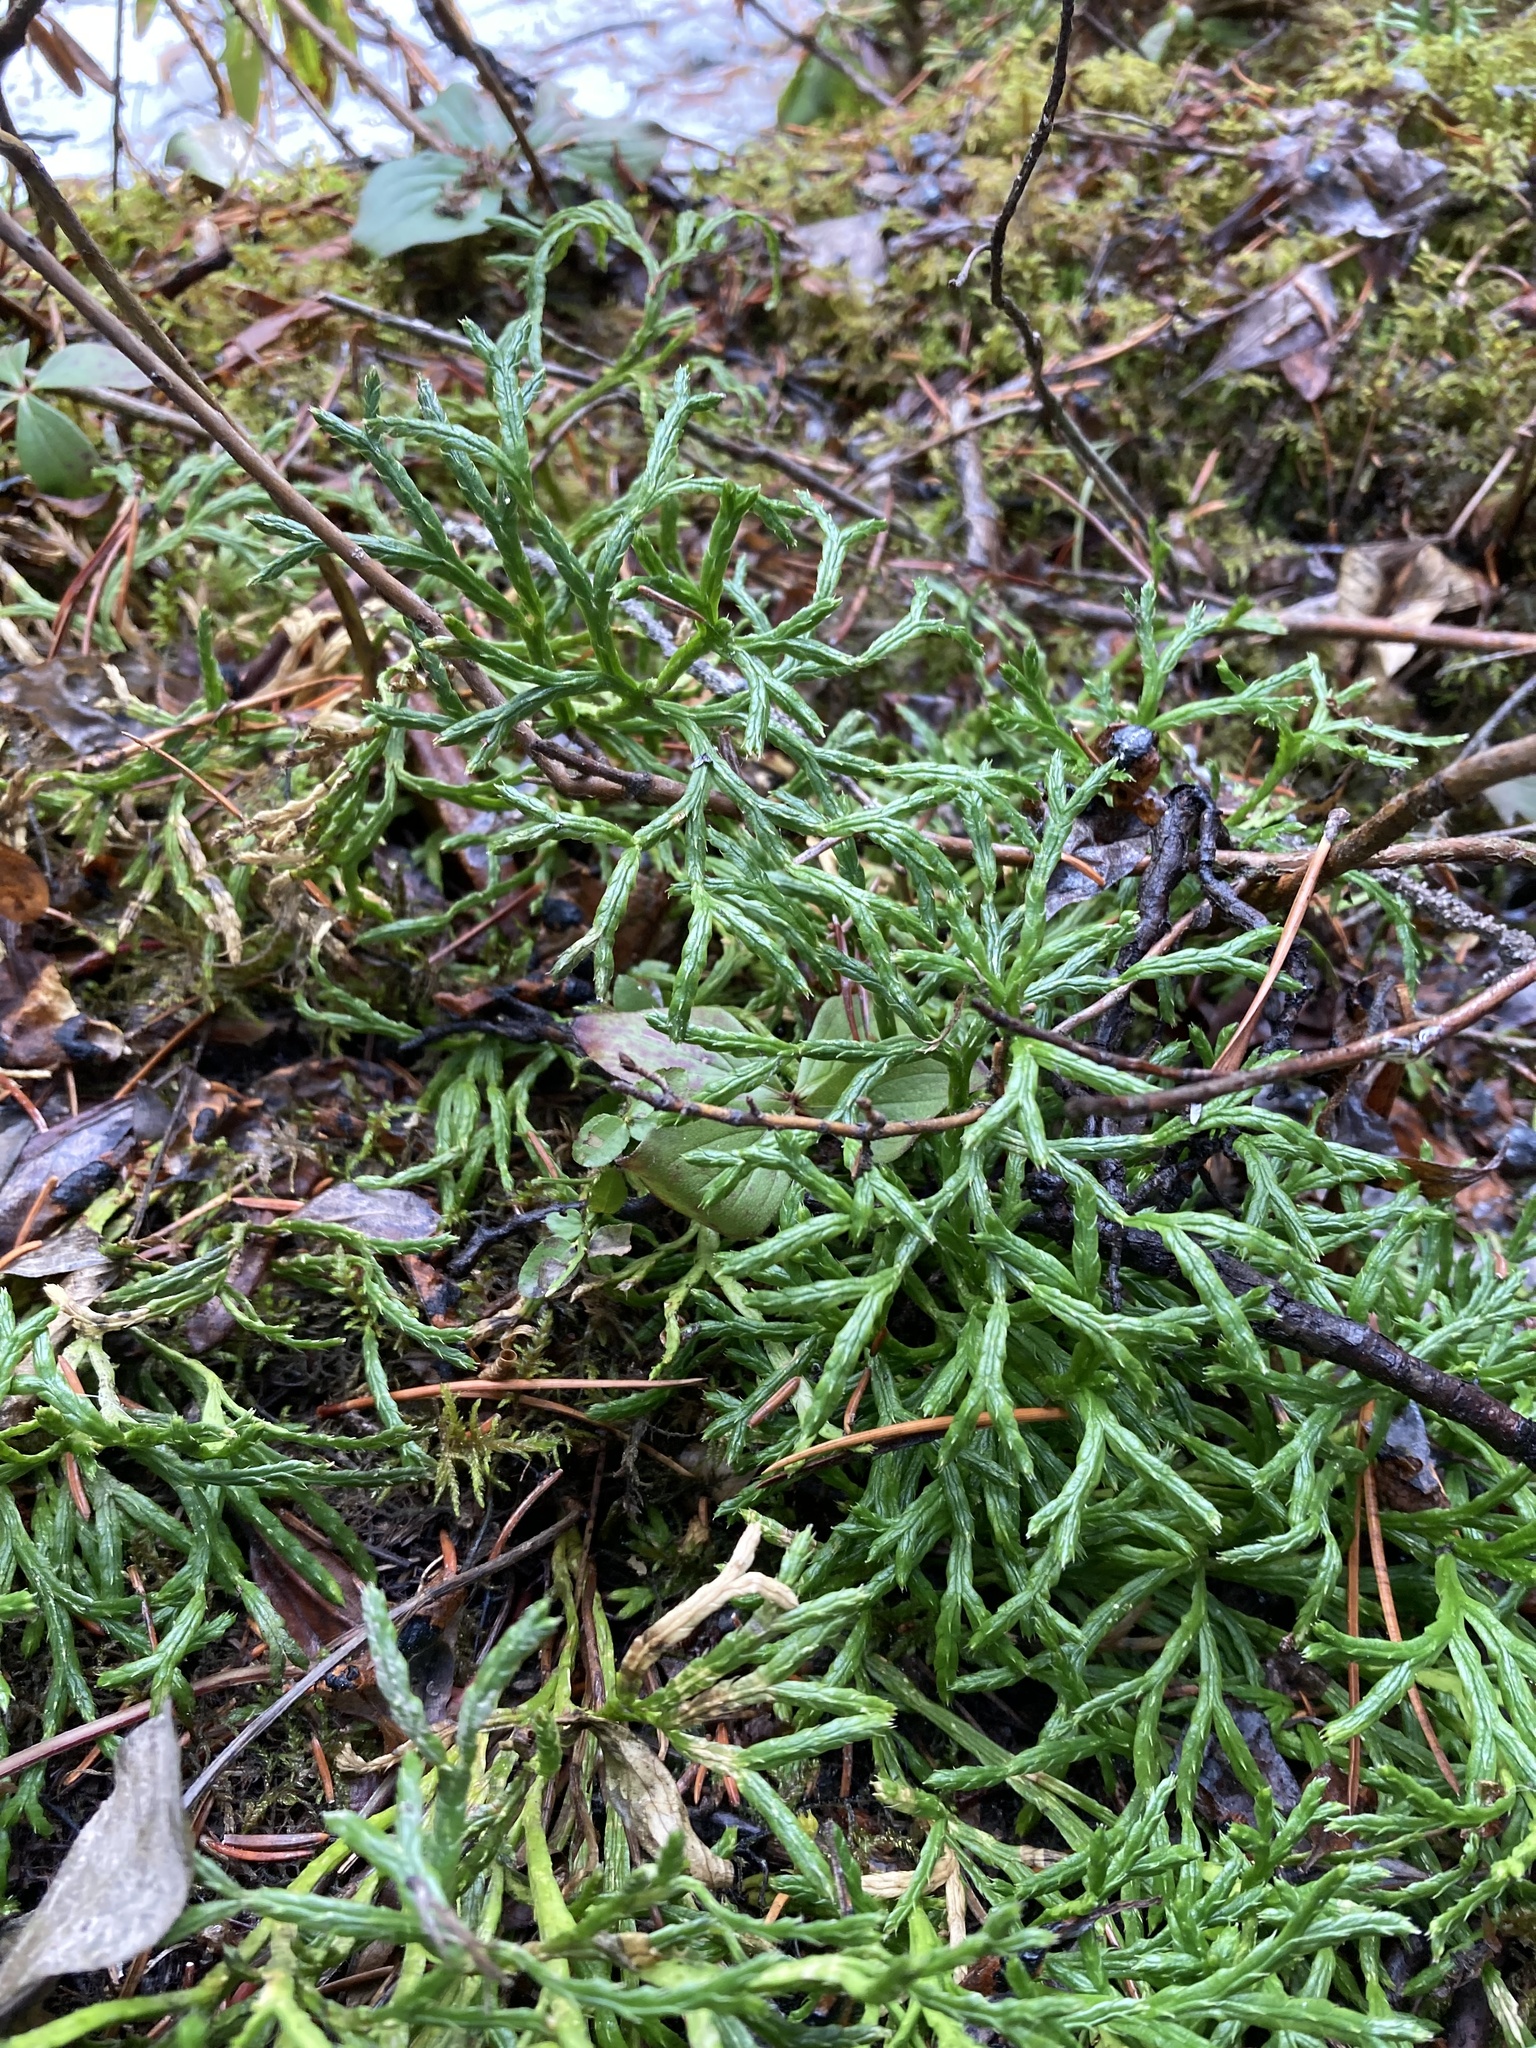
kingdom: Plantae
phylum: Tracheophyta
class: Lycopodiopsida
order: Lycopodiales
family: Lycopodiaceae
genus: Diphasiastrum
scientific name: Diphasiastrum complanatum
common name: Northern running-pine
